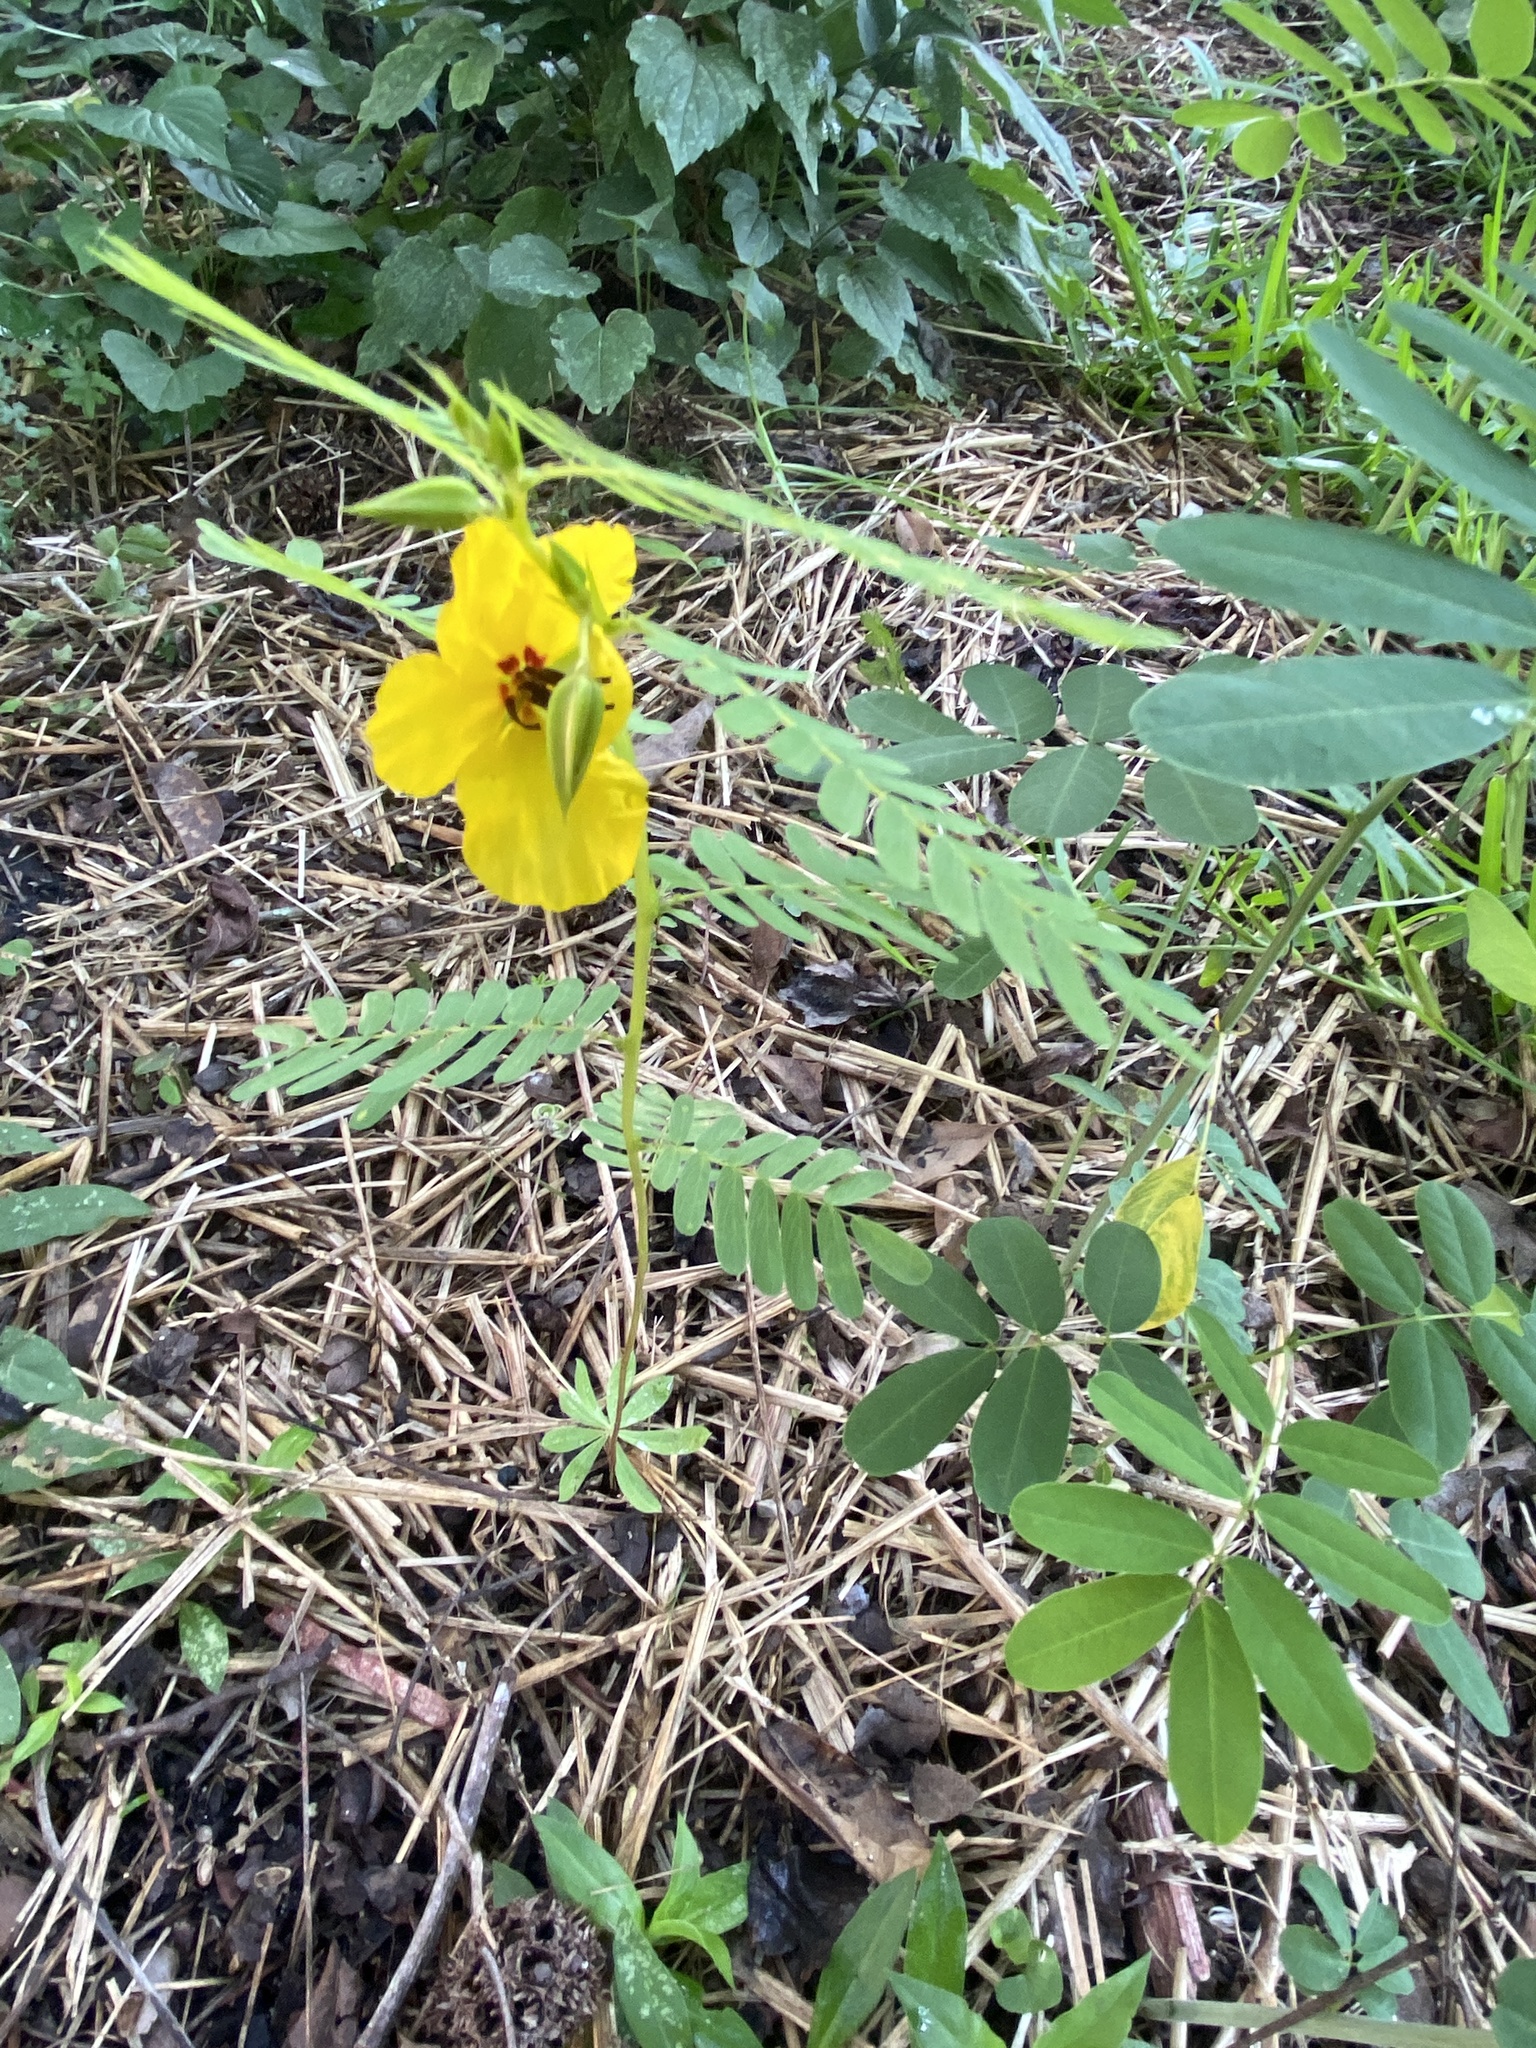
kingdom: Plantae
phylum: Tracheophyta
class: Magnoliopsida
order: Fabales
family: Fabaceae
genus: Chamaecrista
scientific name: Chamaecrista fasciculata
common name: Golden cassia
